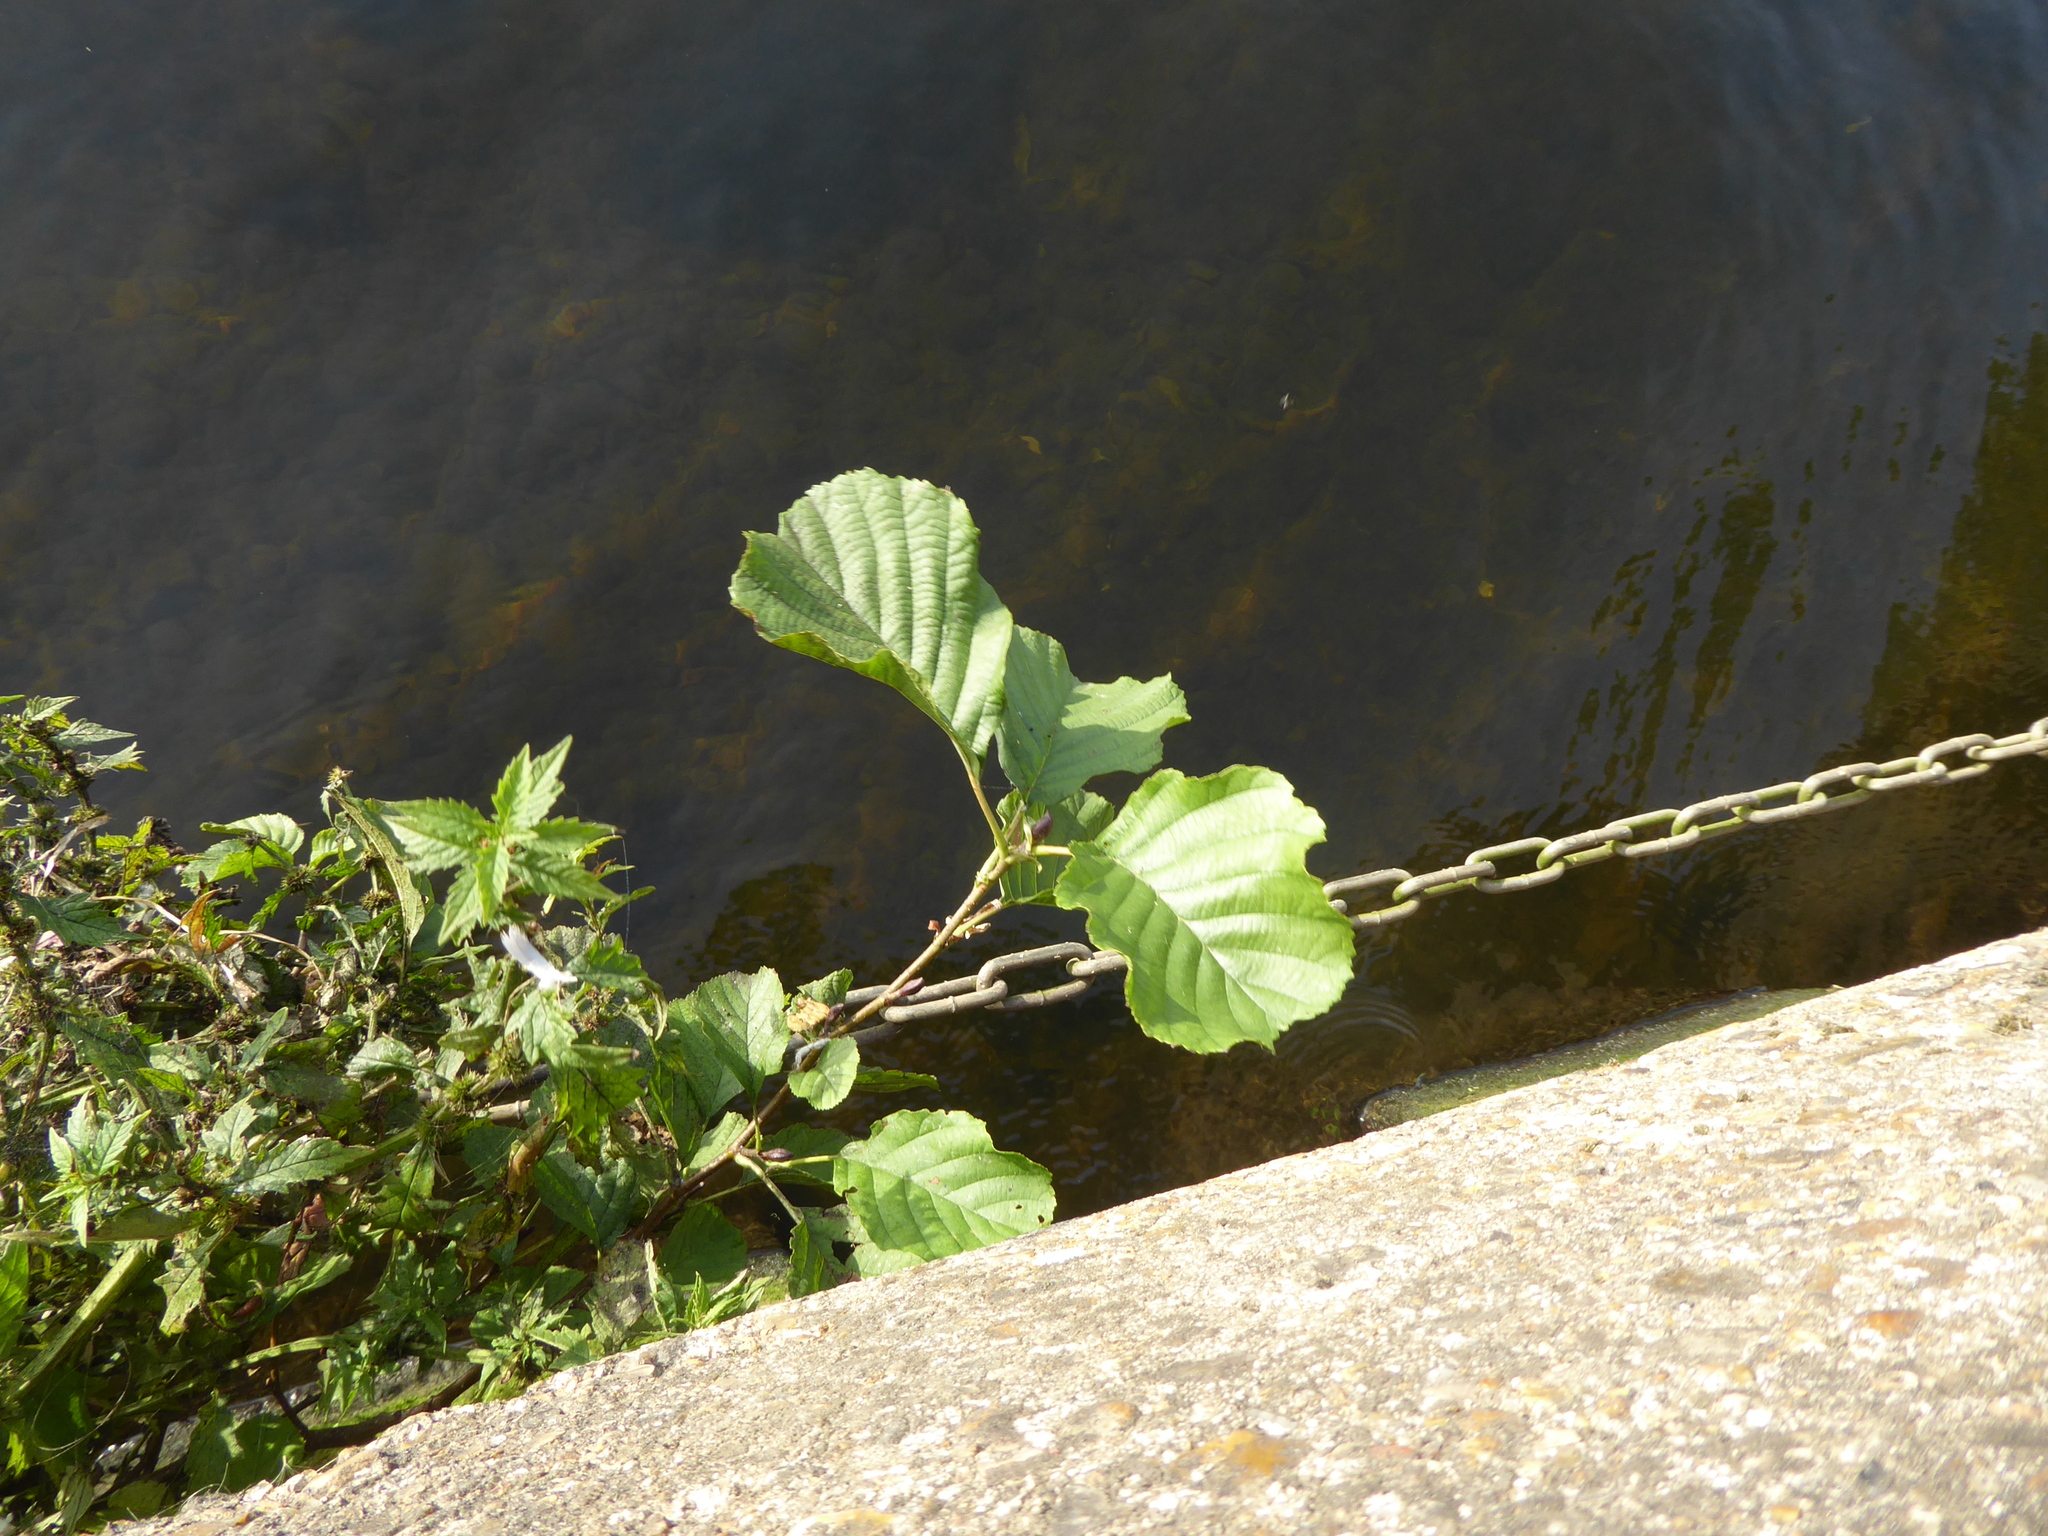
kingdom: Plantae
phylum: Tracheophyta
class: Magnoliopsida
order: Fagales
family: Betulaceae
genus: Alnus
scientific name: Alnus glutinosa
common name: Black alder
